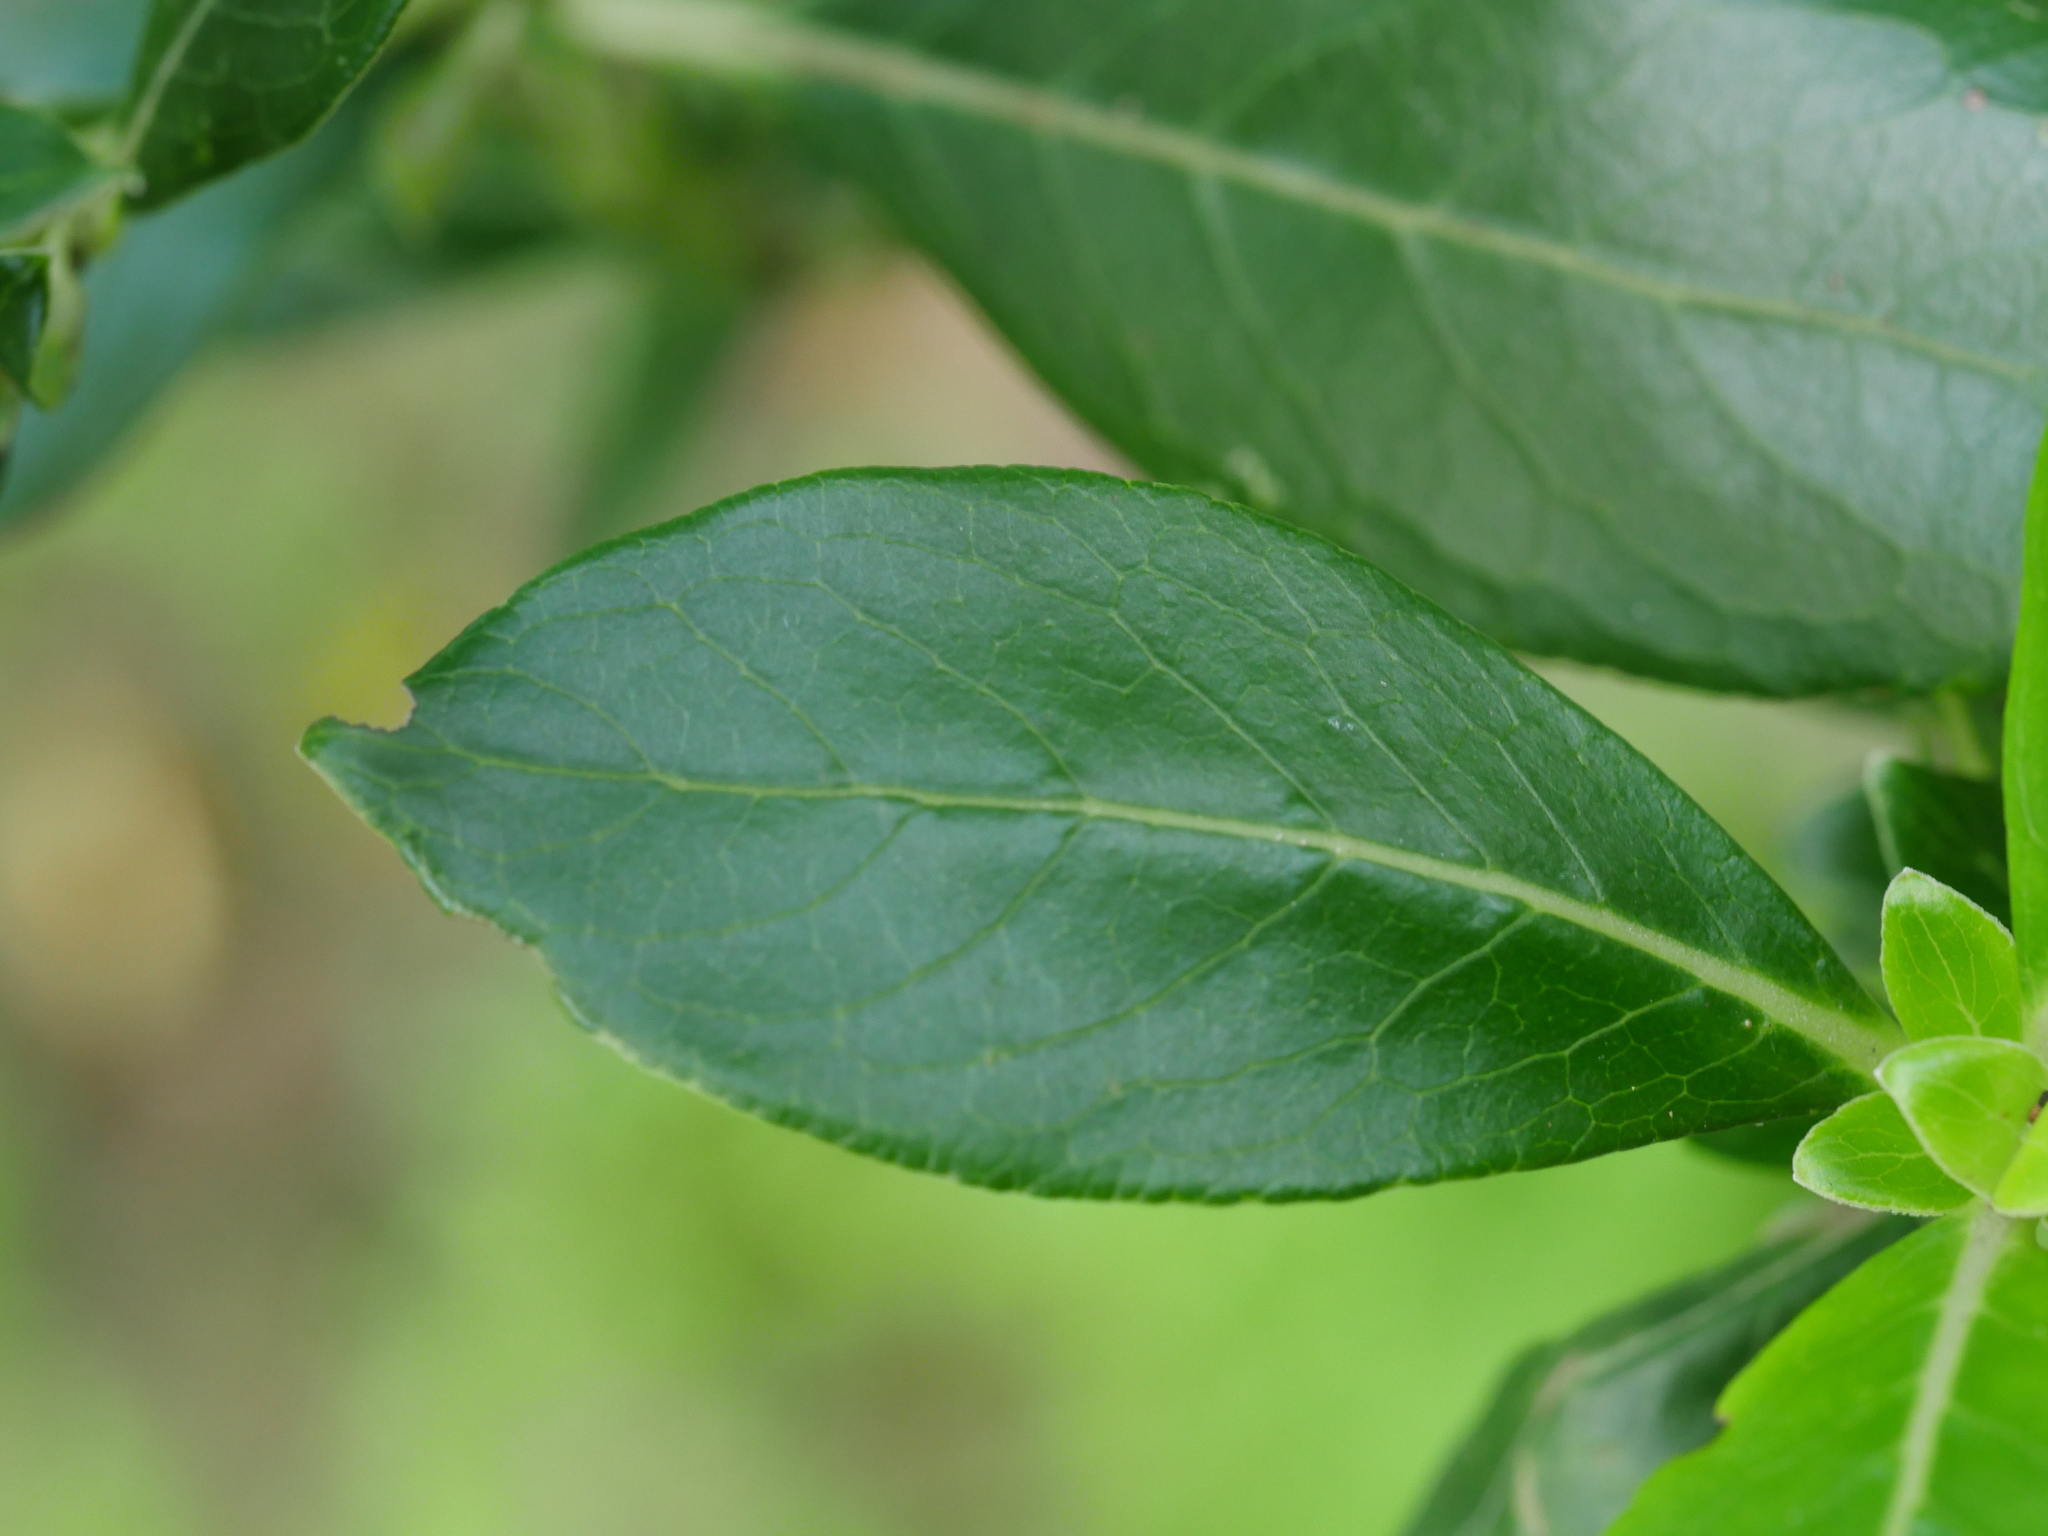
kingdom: Plantae
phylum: Tracheophyta
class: Magnoliopsida
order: Gentianales
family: Rubiaceae
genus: Coprosma
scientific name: Coprosma robusta
